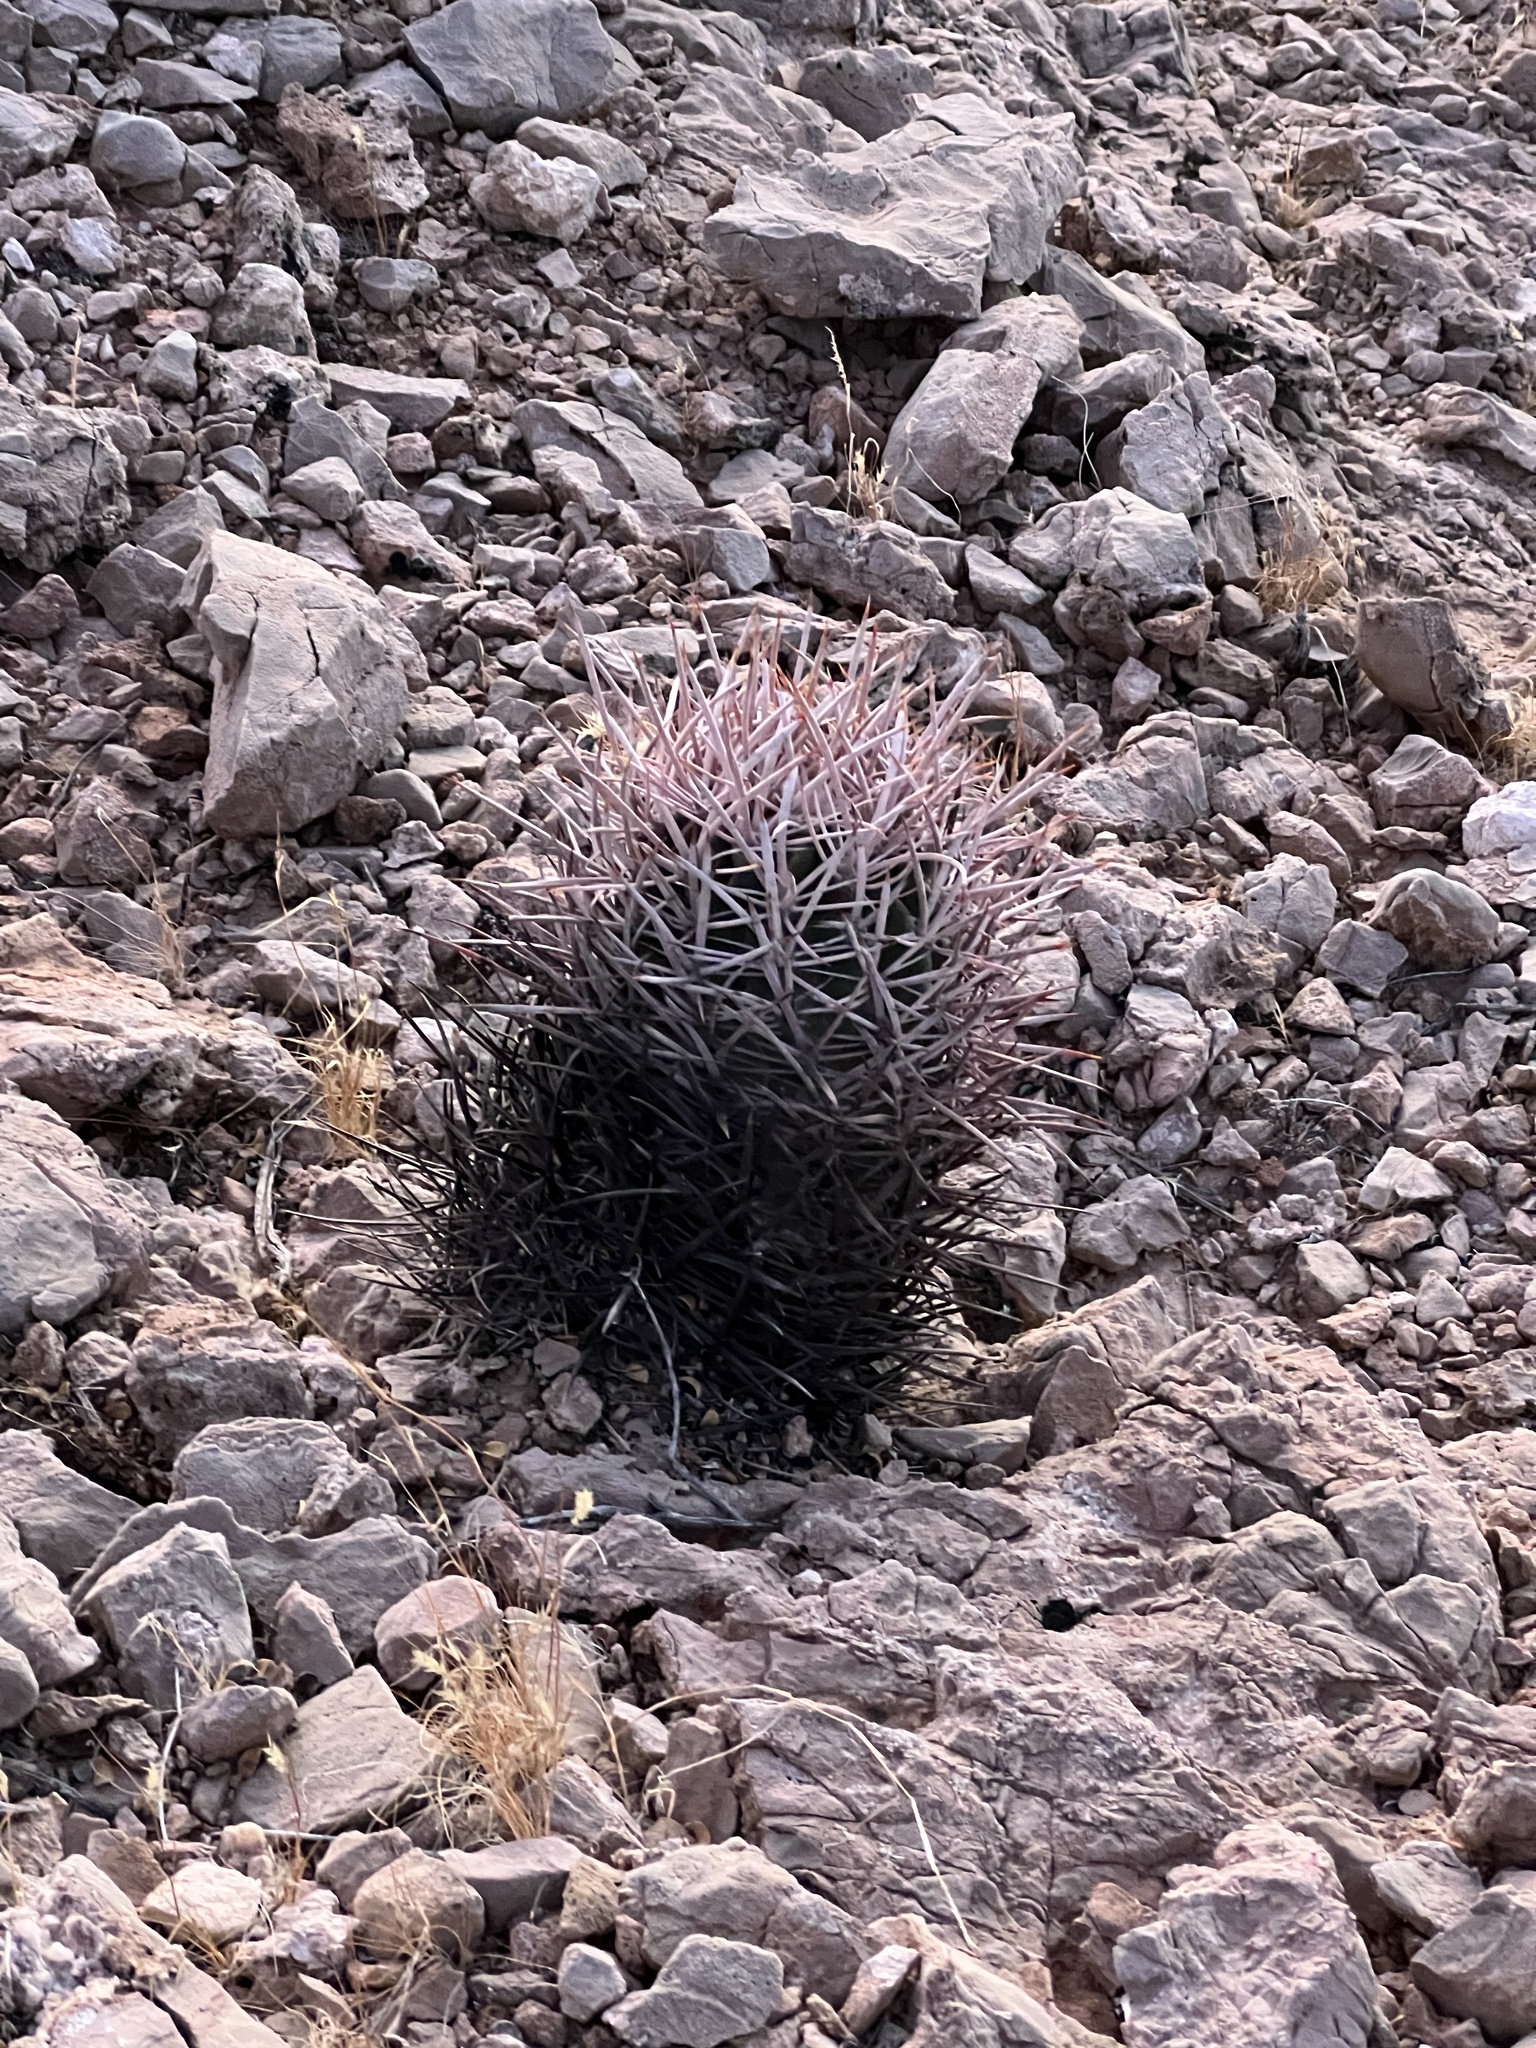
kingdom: Plantae
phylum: Tracheophyta
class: Magnoliopsida
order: Caryophyllales
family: Cactaceae
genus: Echinocactus
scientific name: Echinocactus polycephalus
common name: Cottontop cactus
